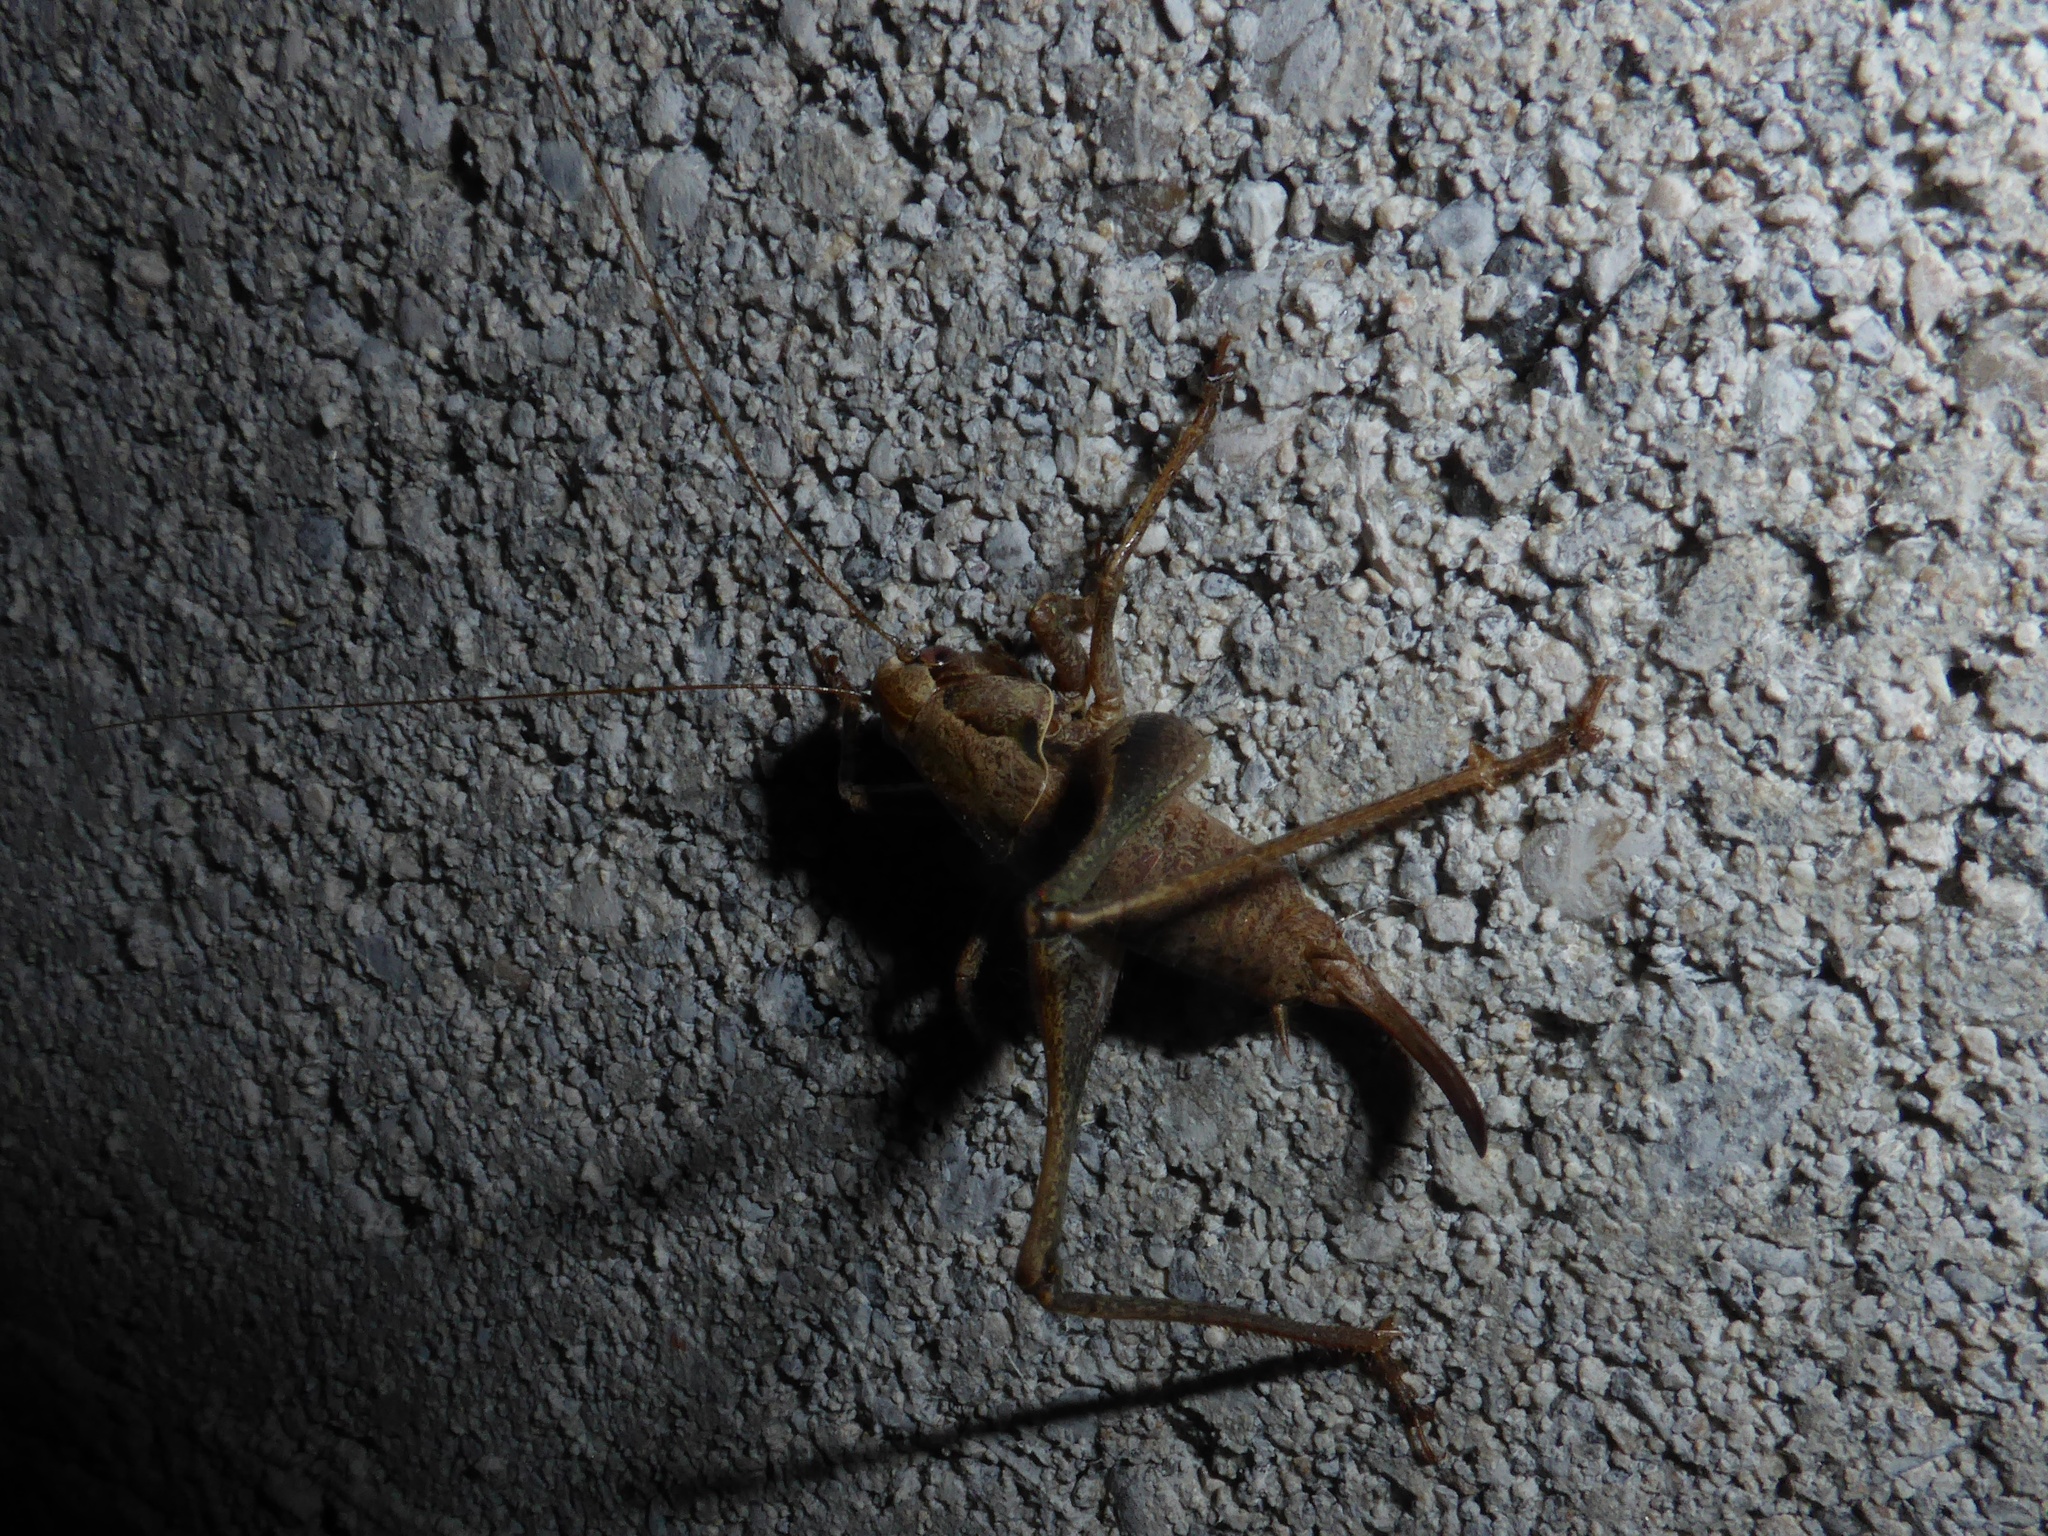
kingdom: Animalia
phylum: Arthropoda
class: Insecta
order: Orthoptera
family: Tettigoniidae
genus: Pholidoptera
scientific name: Pholidoptera griseoaptera
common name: Dark bush-cricket
